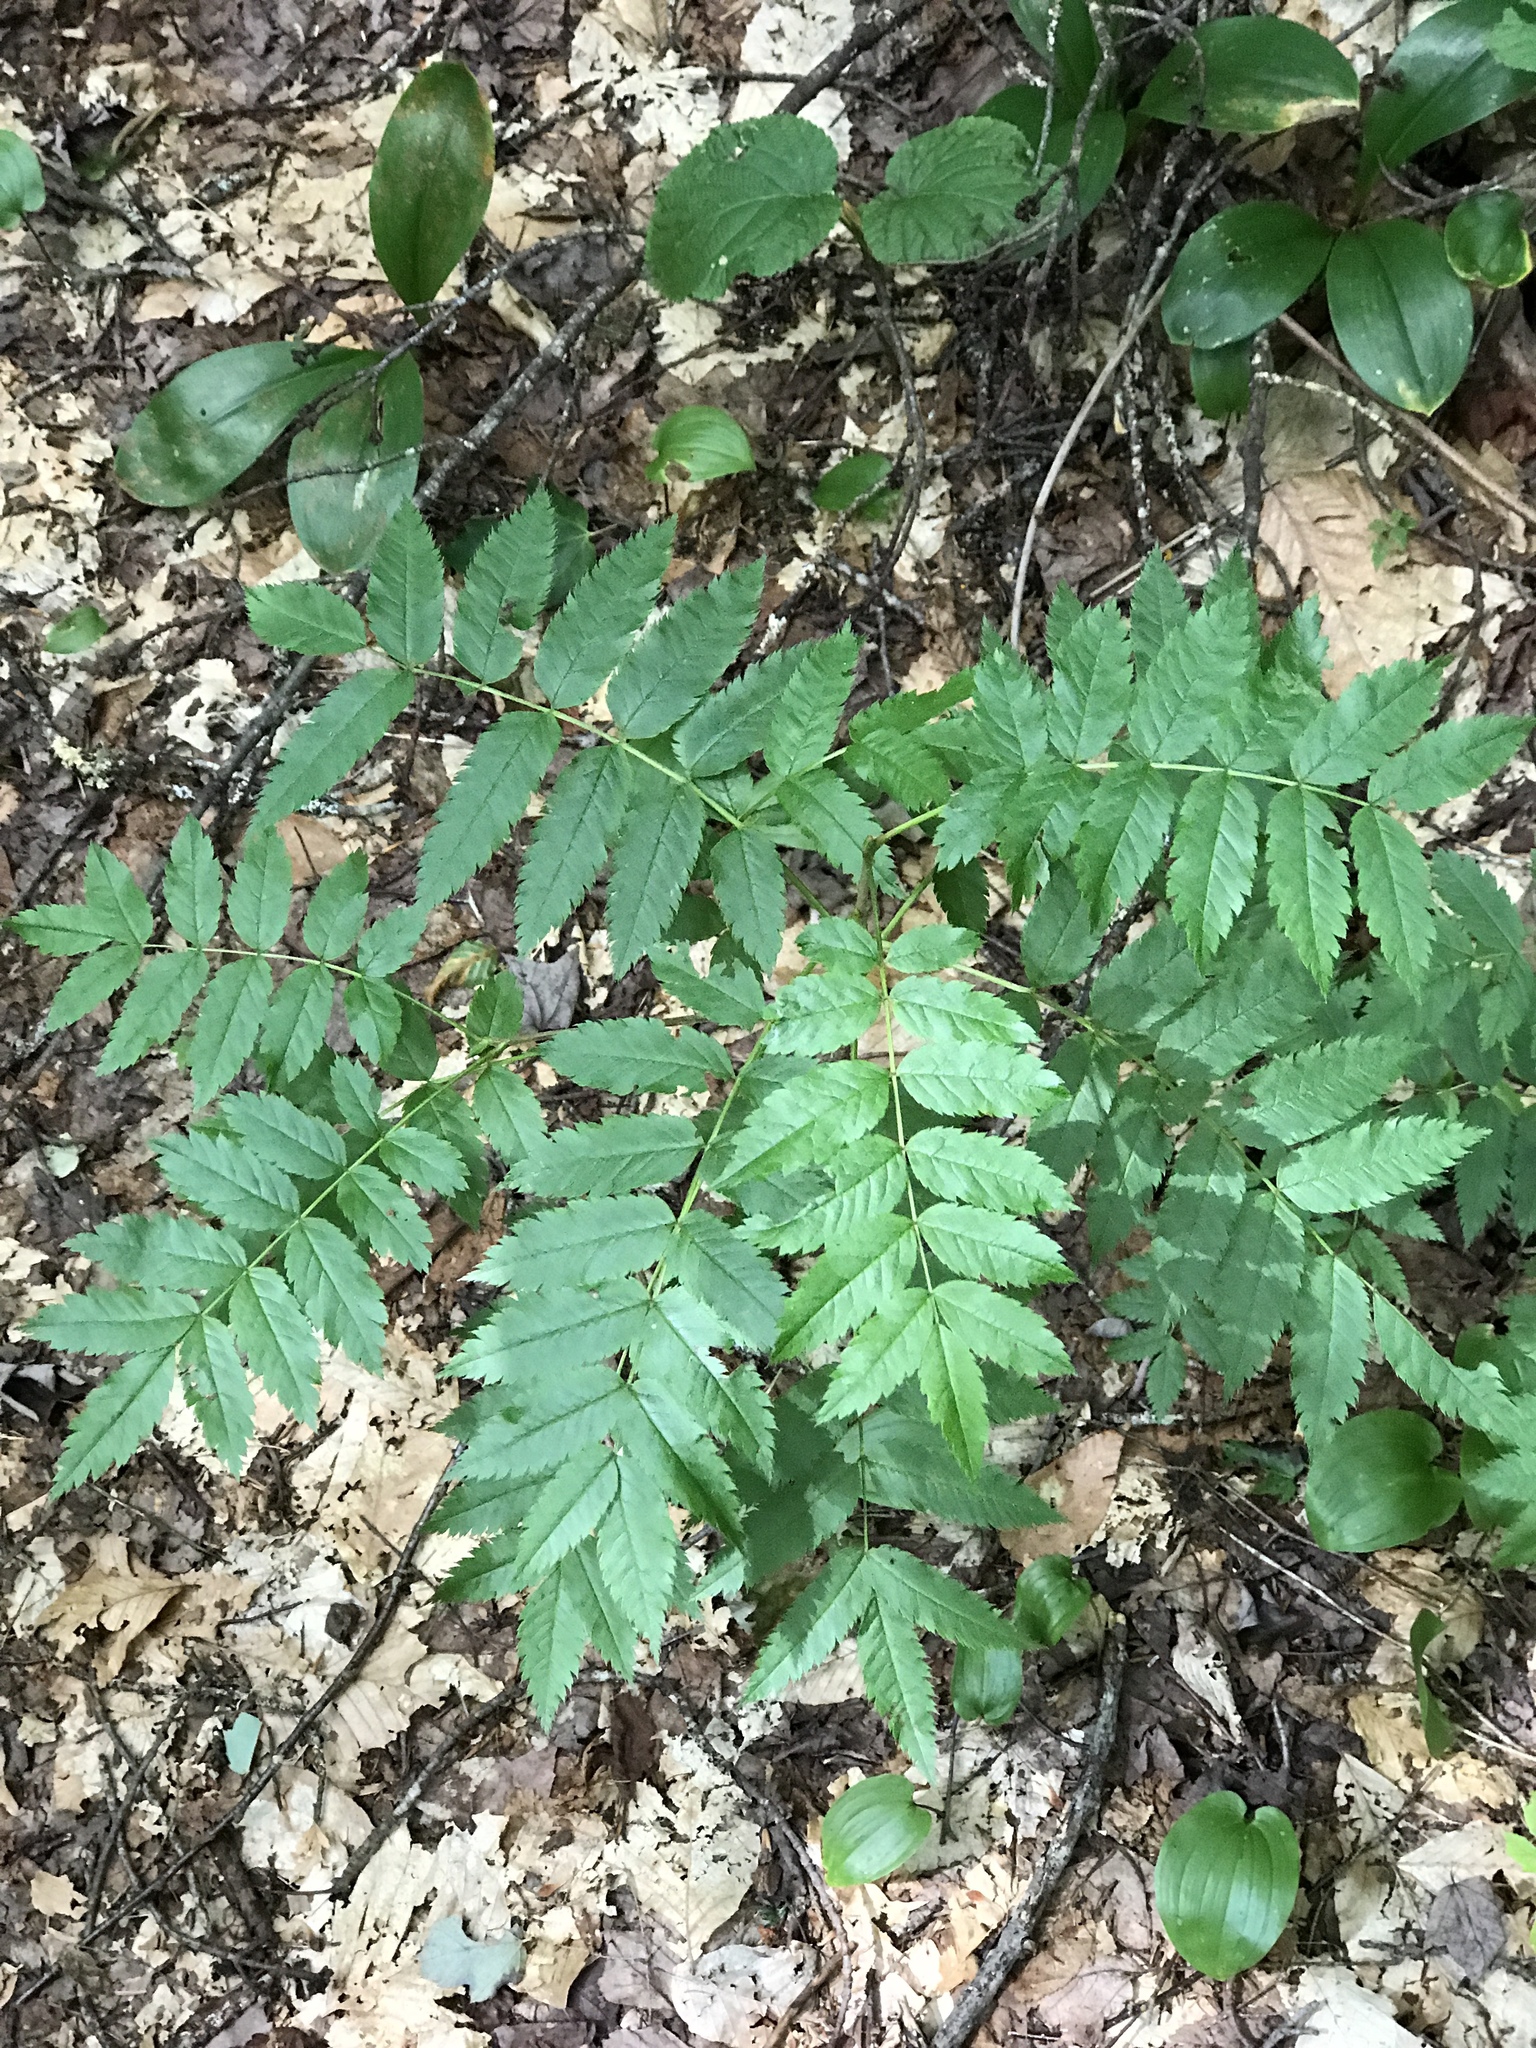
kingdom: Plantae
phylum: Tracheophyta
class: Magnoliopsida
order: Rosales
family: Rosaceae
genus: Sorbus
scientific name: Sorbus americana
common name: American mountain-ash
